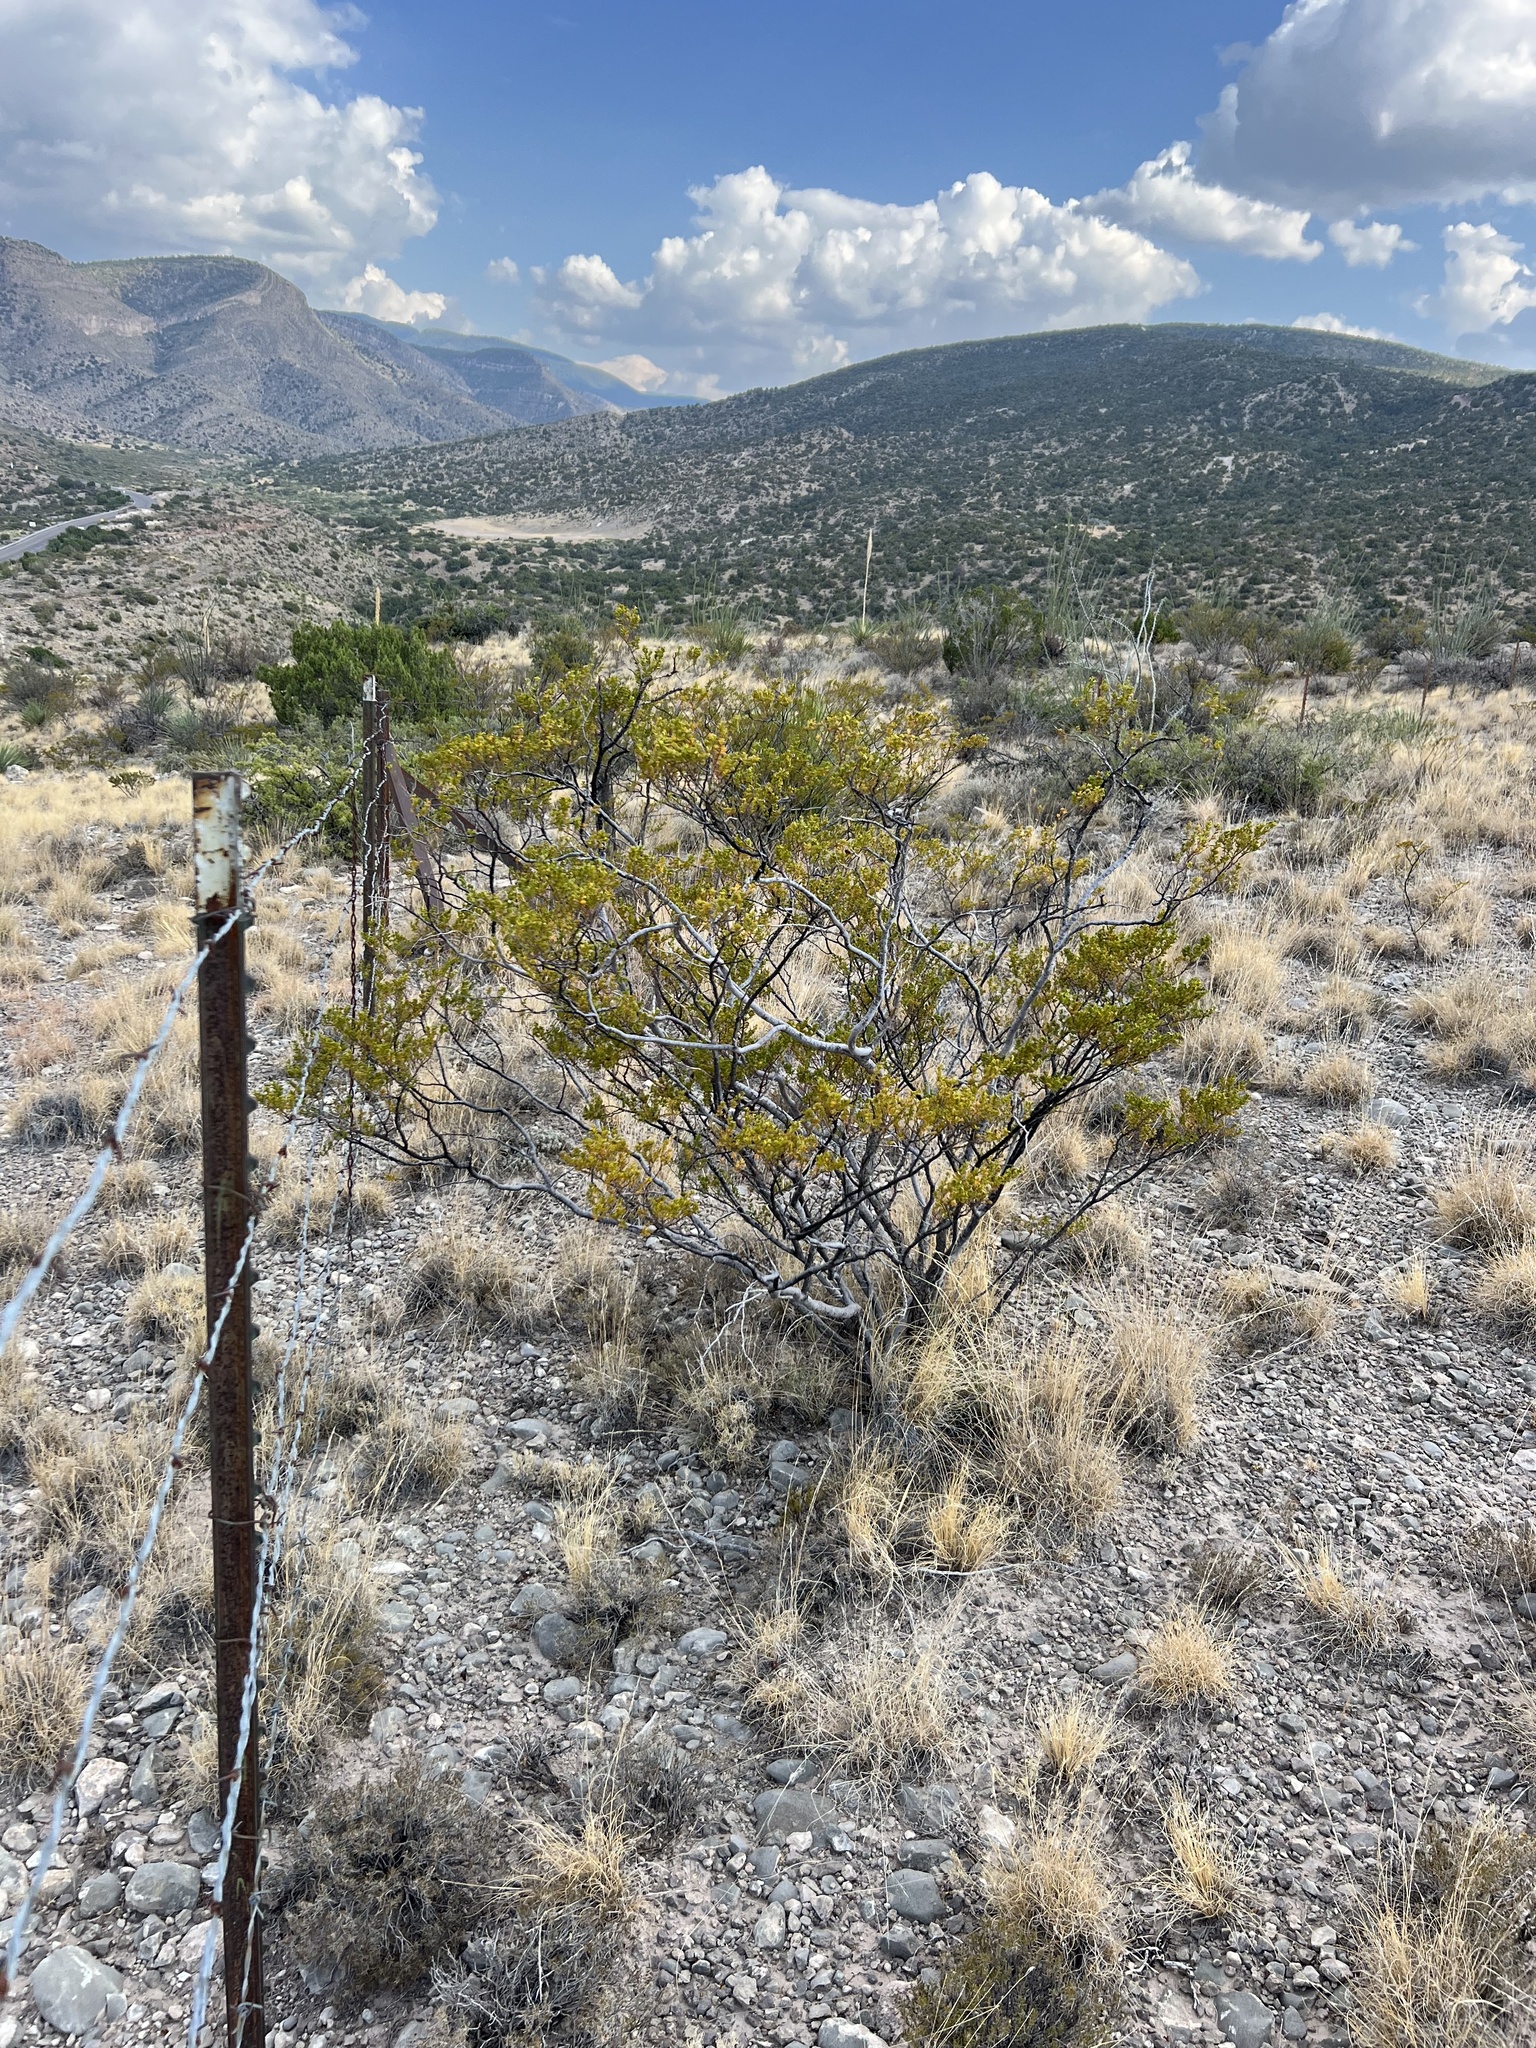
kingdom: Plantae
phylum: Tracheophyta
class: Magnoliopsida
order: Zygophyllales
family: Zygophyllaceae
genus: Larrea
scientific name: Larrea tridentata
